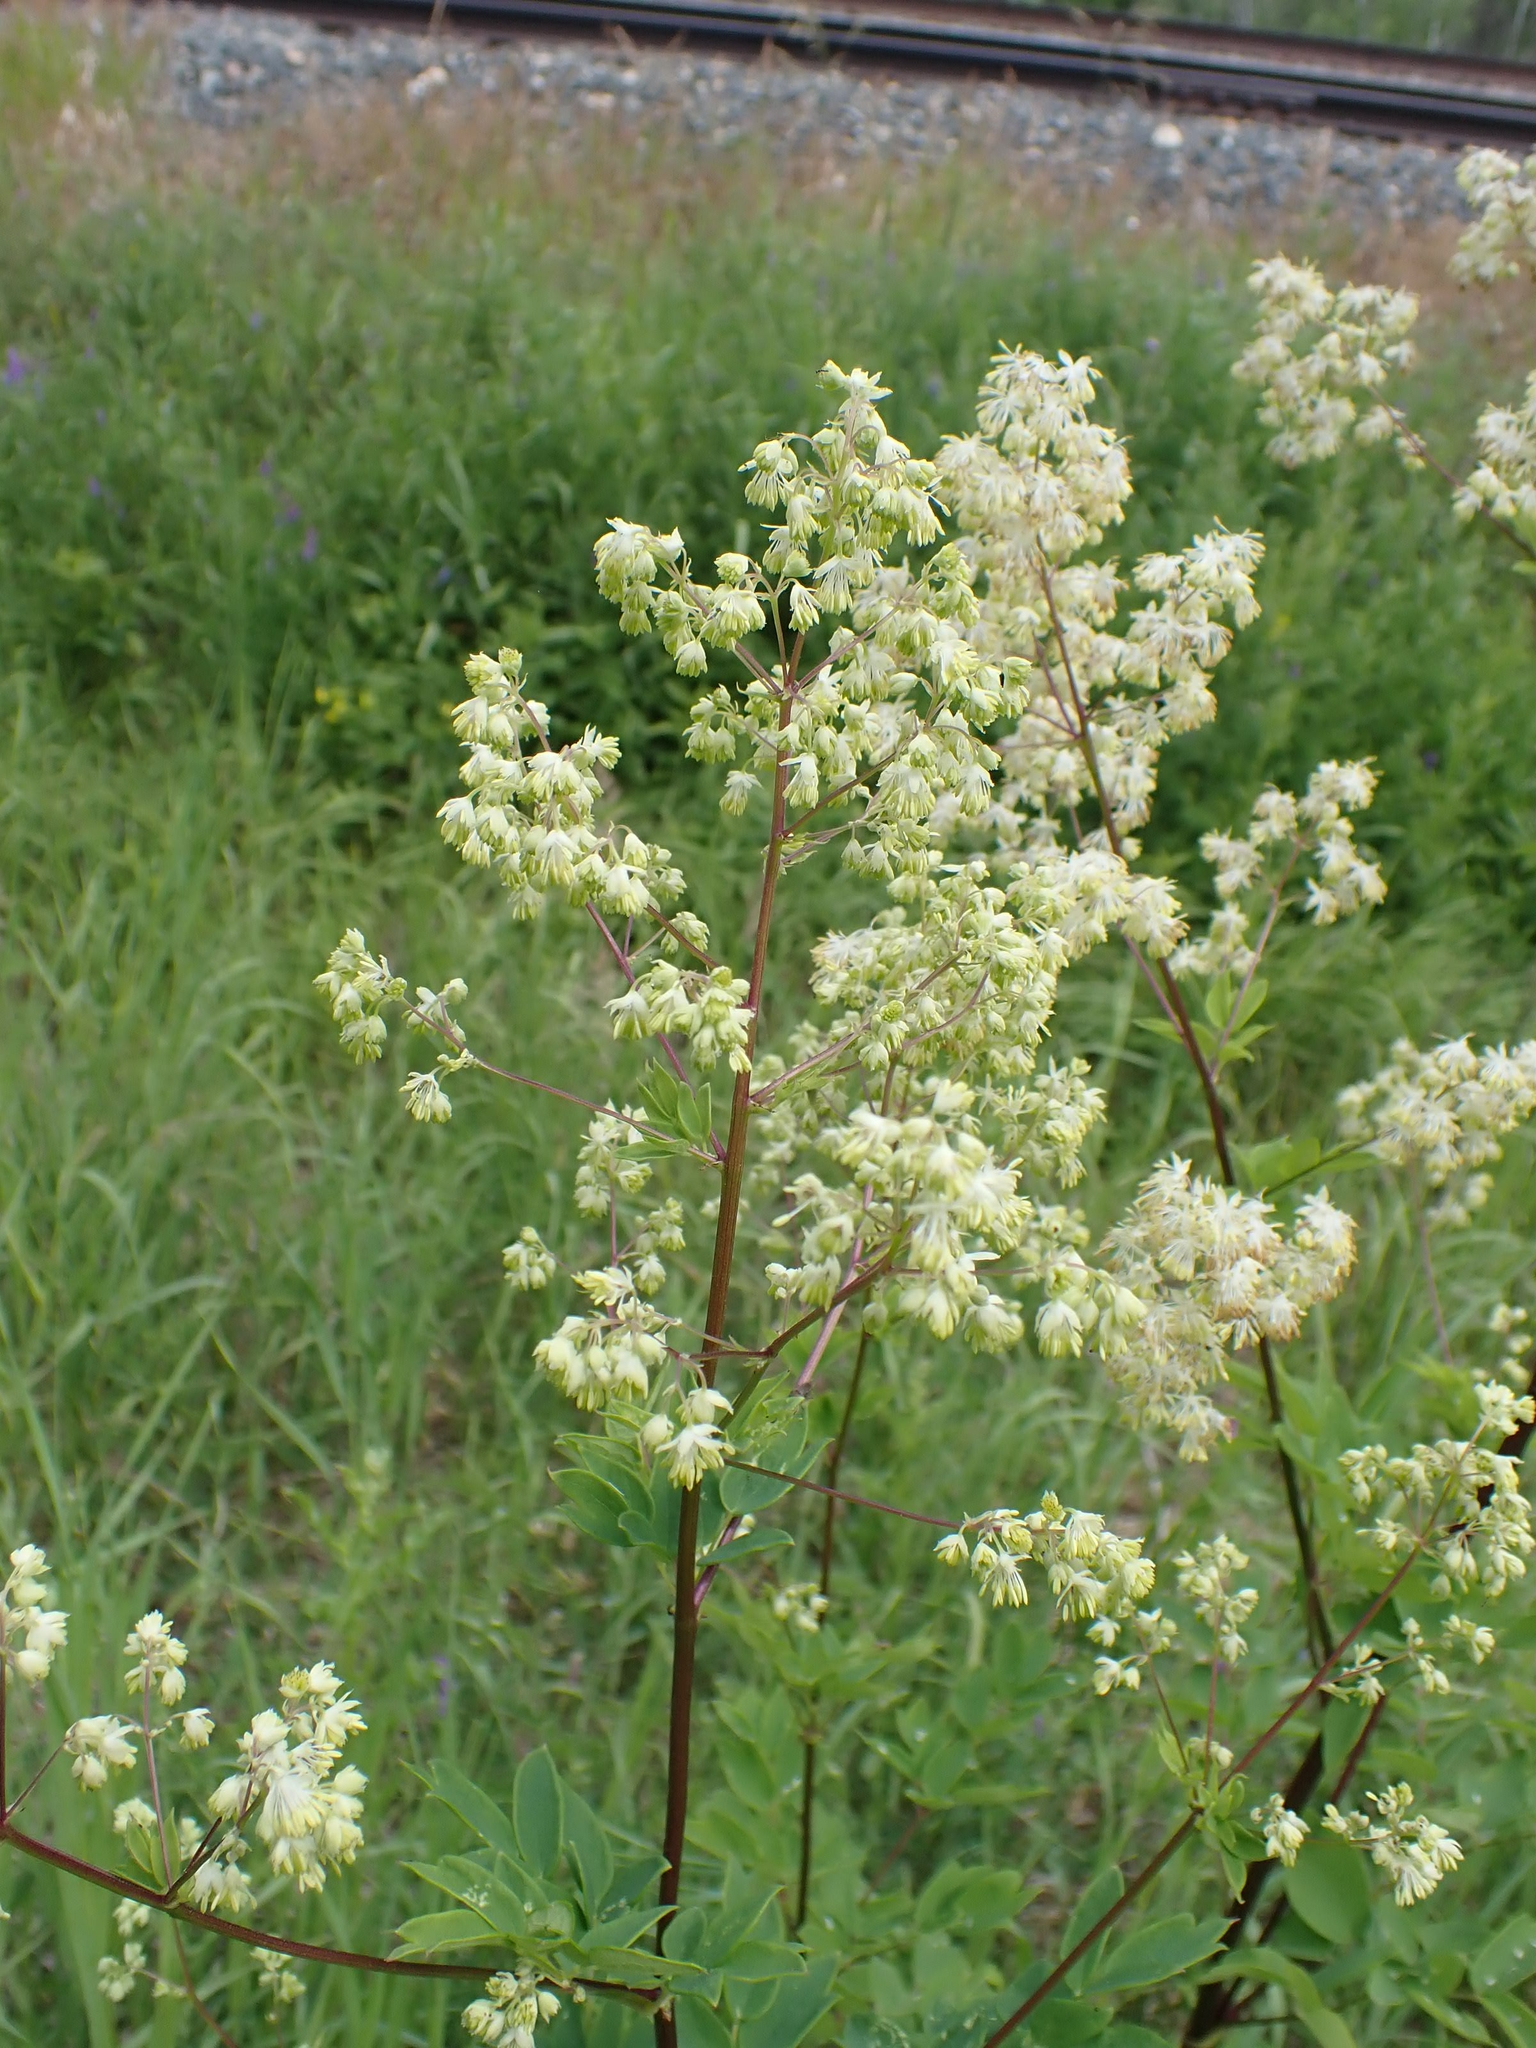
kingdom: Plantae
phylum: Tracheophyta
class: Magnoliopsida
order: Ranunculales
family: Ranunculaceae
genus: Thalictrum
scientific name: Thalictrum dasycarpum
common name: Purple meadow-rue
